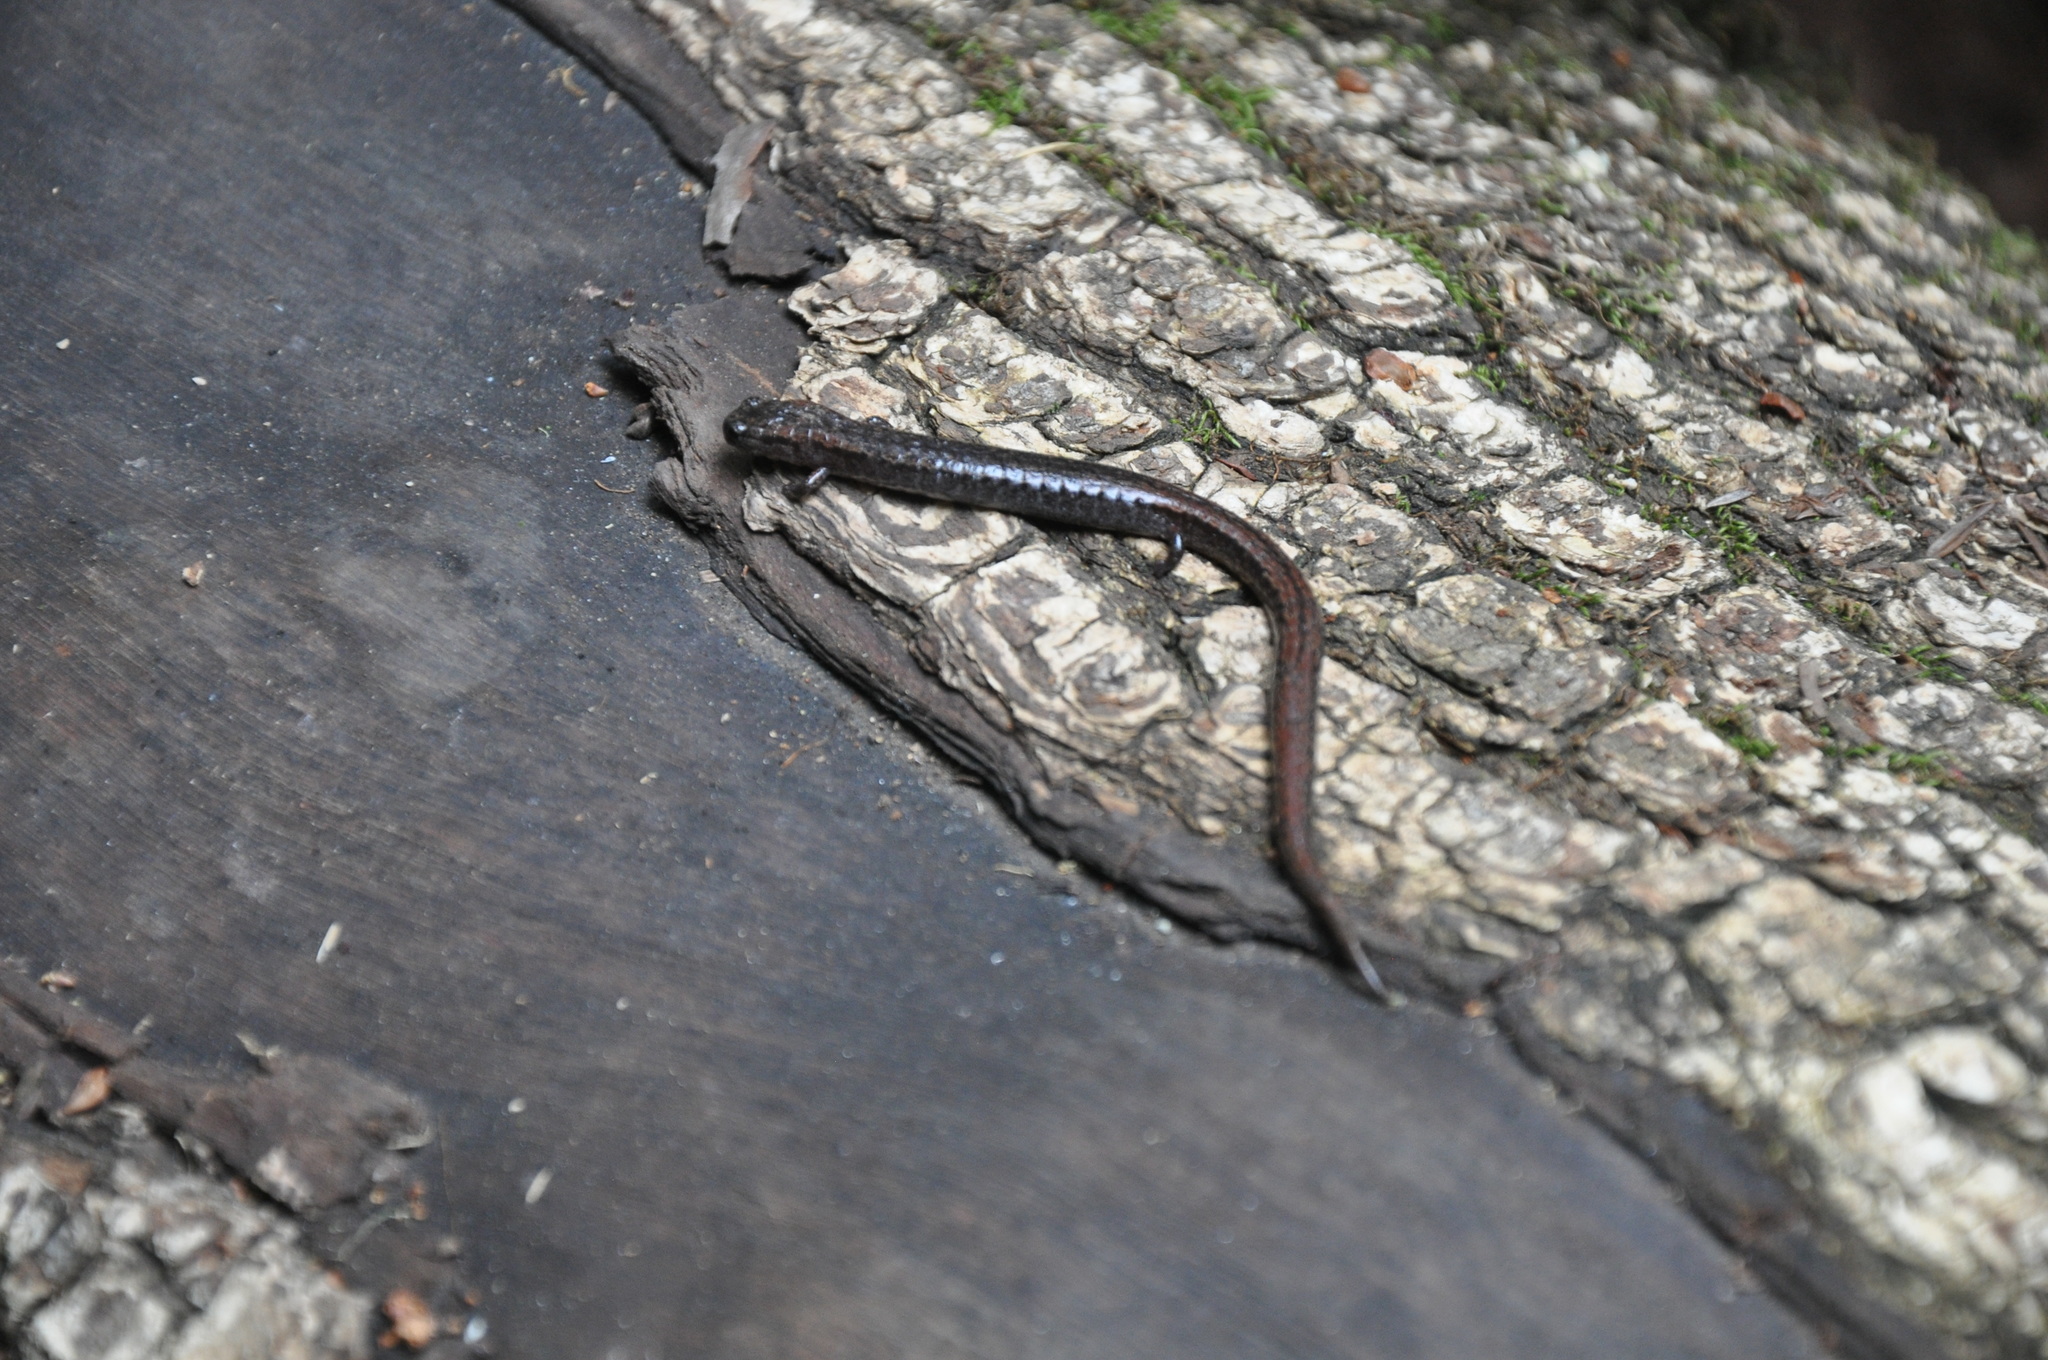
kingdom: Animalia
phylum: Chordata
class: Amphibia
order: Caudata
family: Plethodontidae
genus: Batrachoseps
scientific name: Batrachoseps attenuatus
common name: California slender salamander
